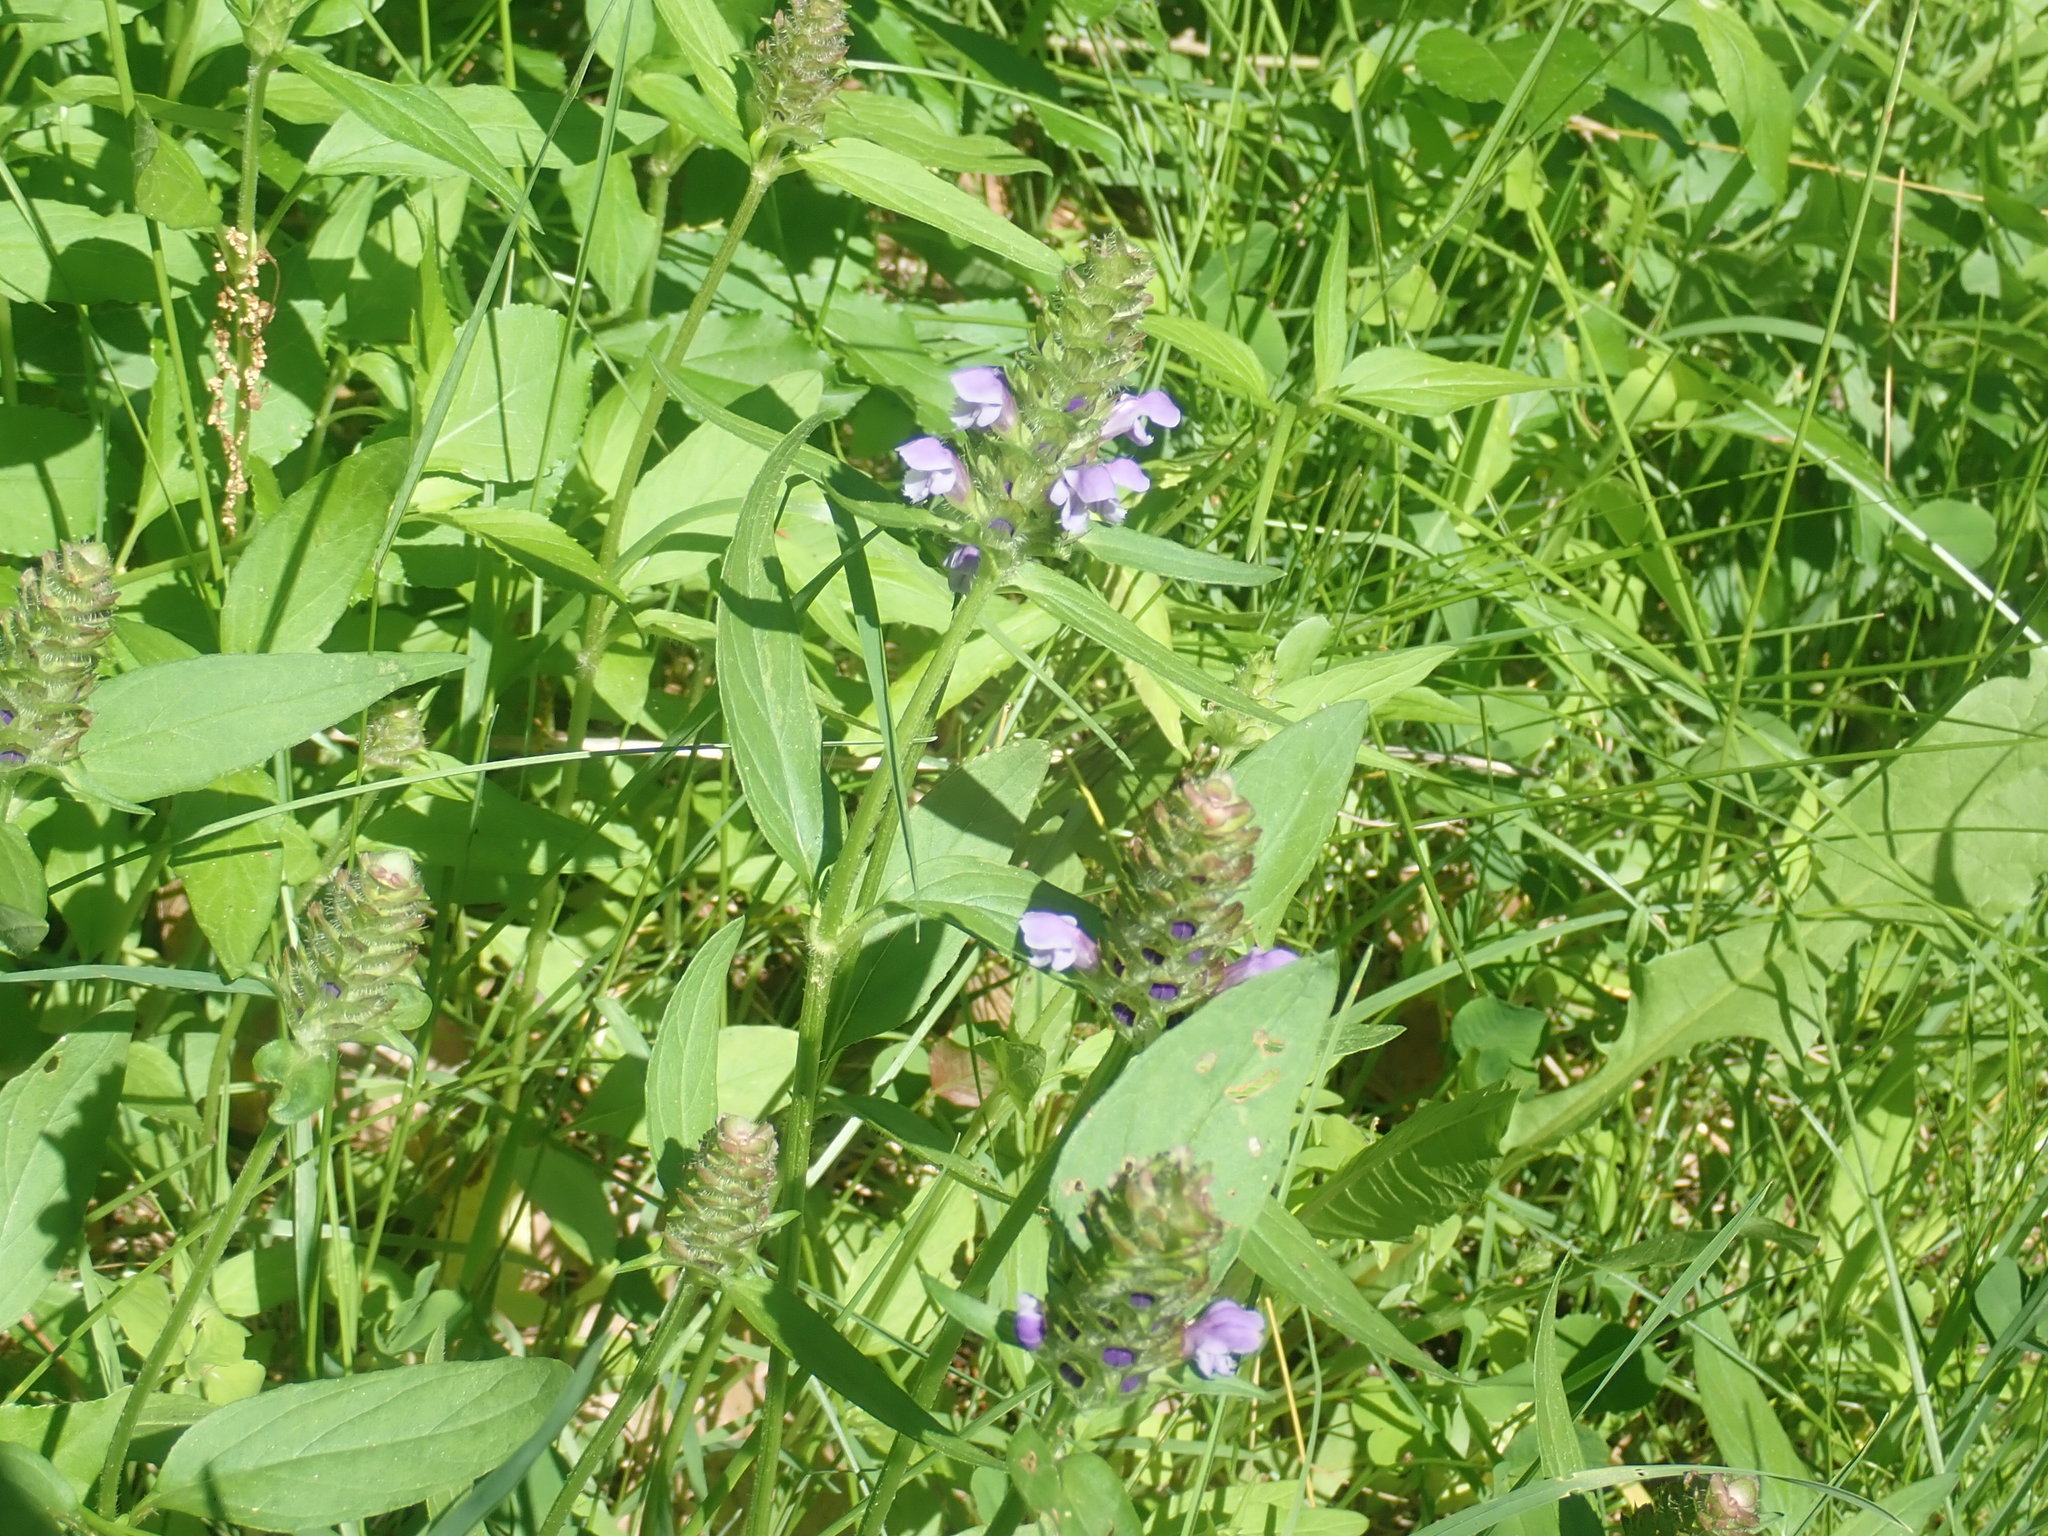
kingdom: Plantae
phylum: Tracheophyta
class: Magnoliopsida
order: Lamiales
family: Lamiaceae
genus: Prunella
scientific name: Prunella vulgaris
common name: Heal-all
